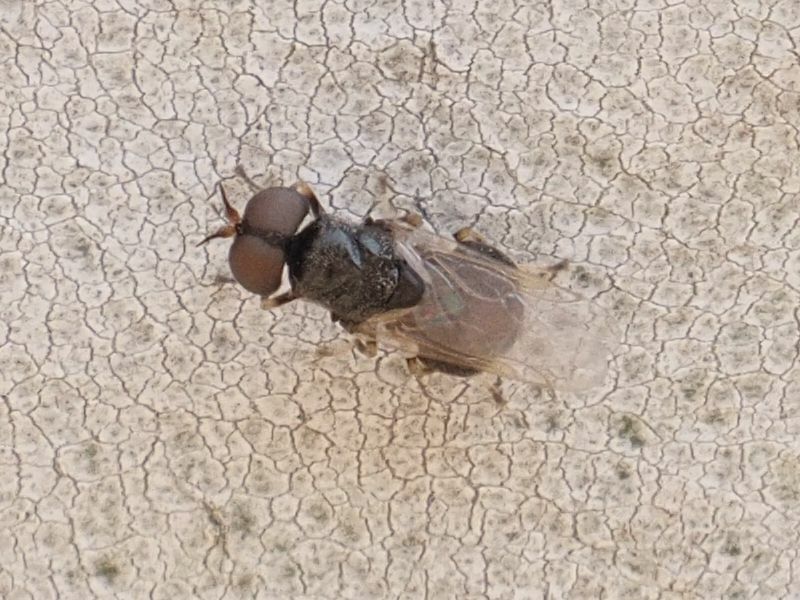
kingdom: Animalia
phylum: Arthropoda
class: Insecta
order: Diptera
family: Stratiomyidae
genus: Alliophleps
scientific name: Alliophleps elliptica
